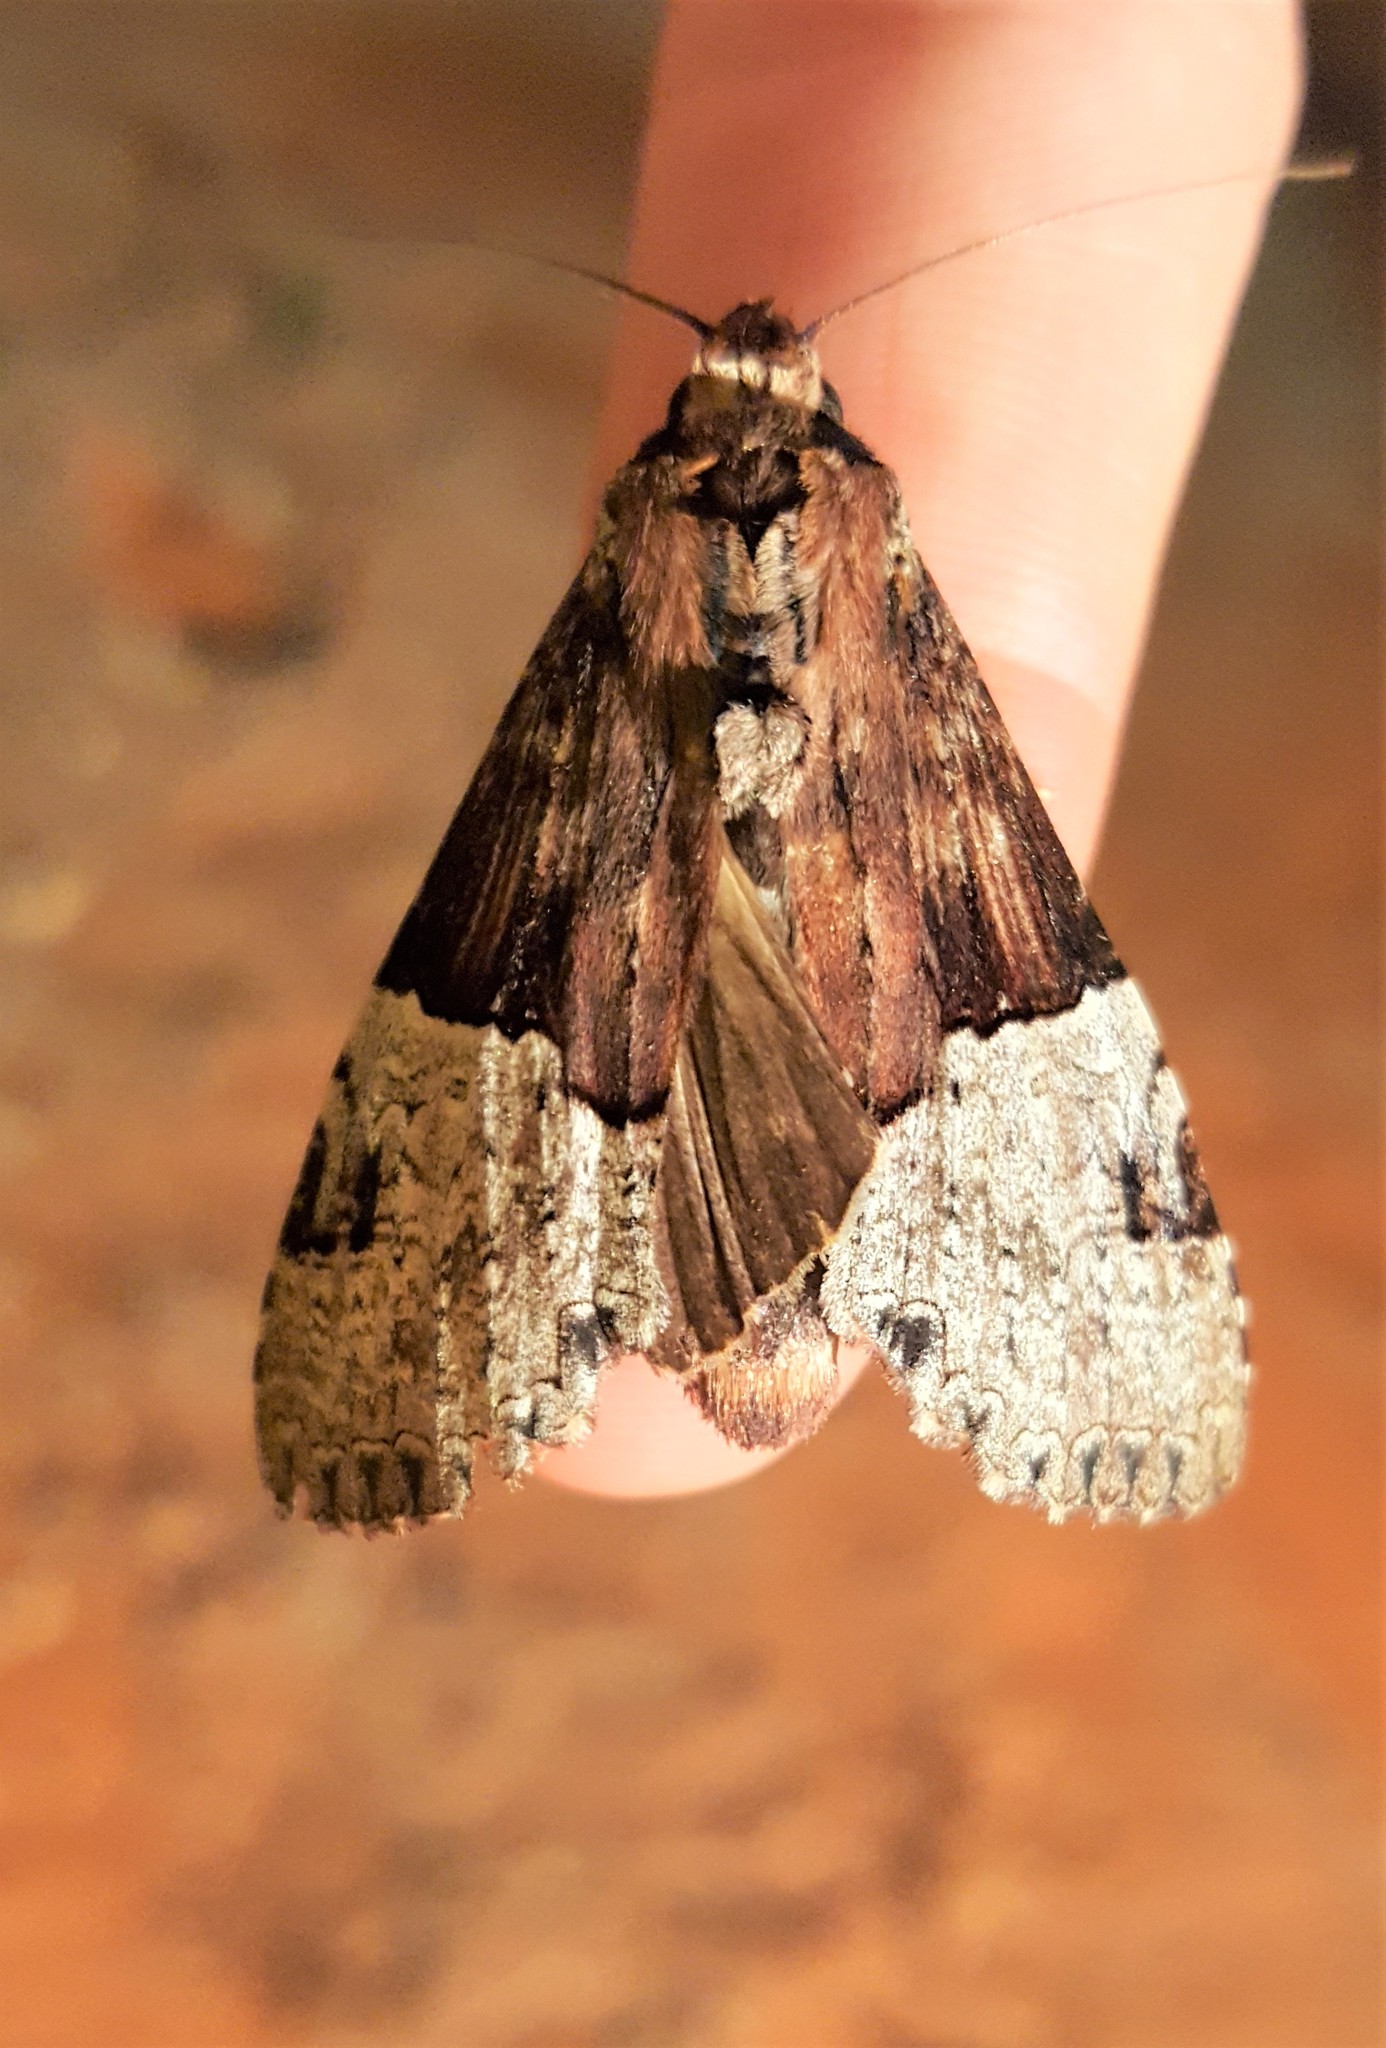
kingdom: Animalia
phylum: Arthropoda
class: Insecta
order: Lepidoptera
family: Notodontidae
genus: Nystalea
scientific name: Nystalea aequipars
